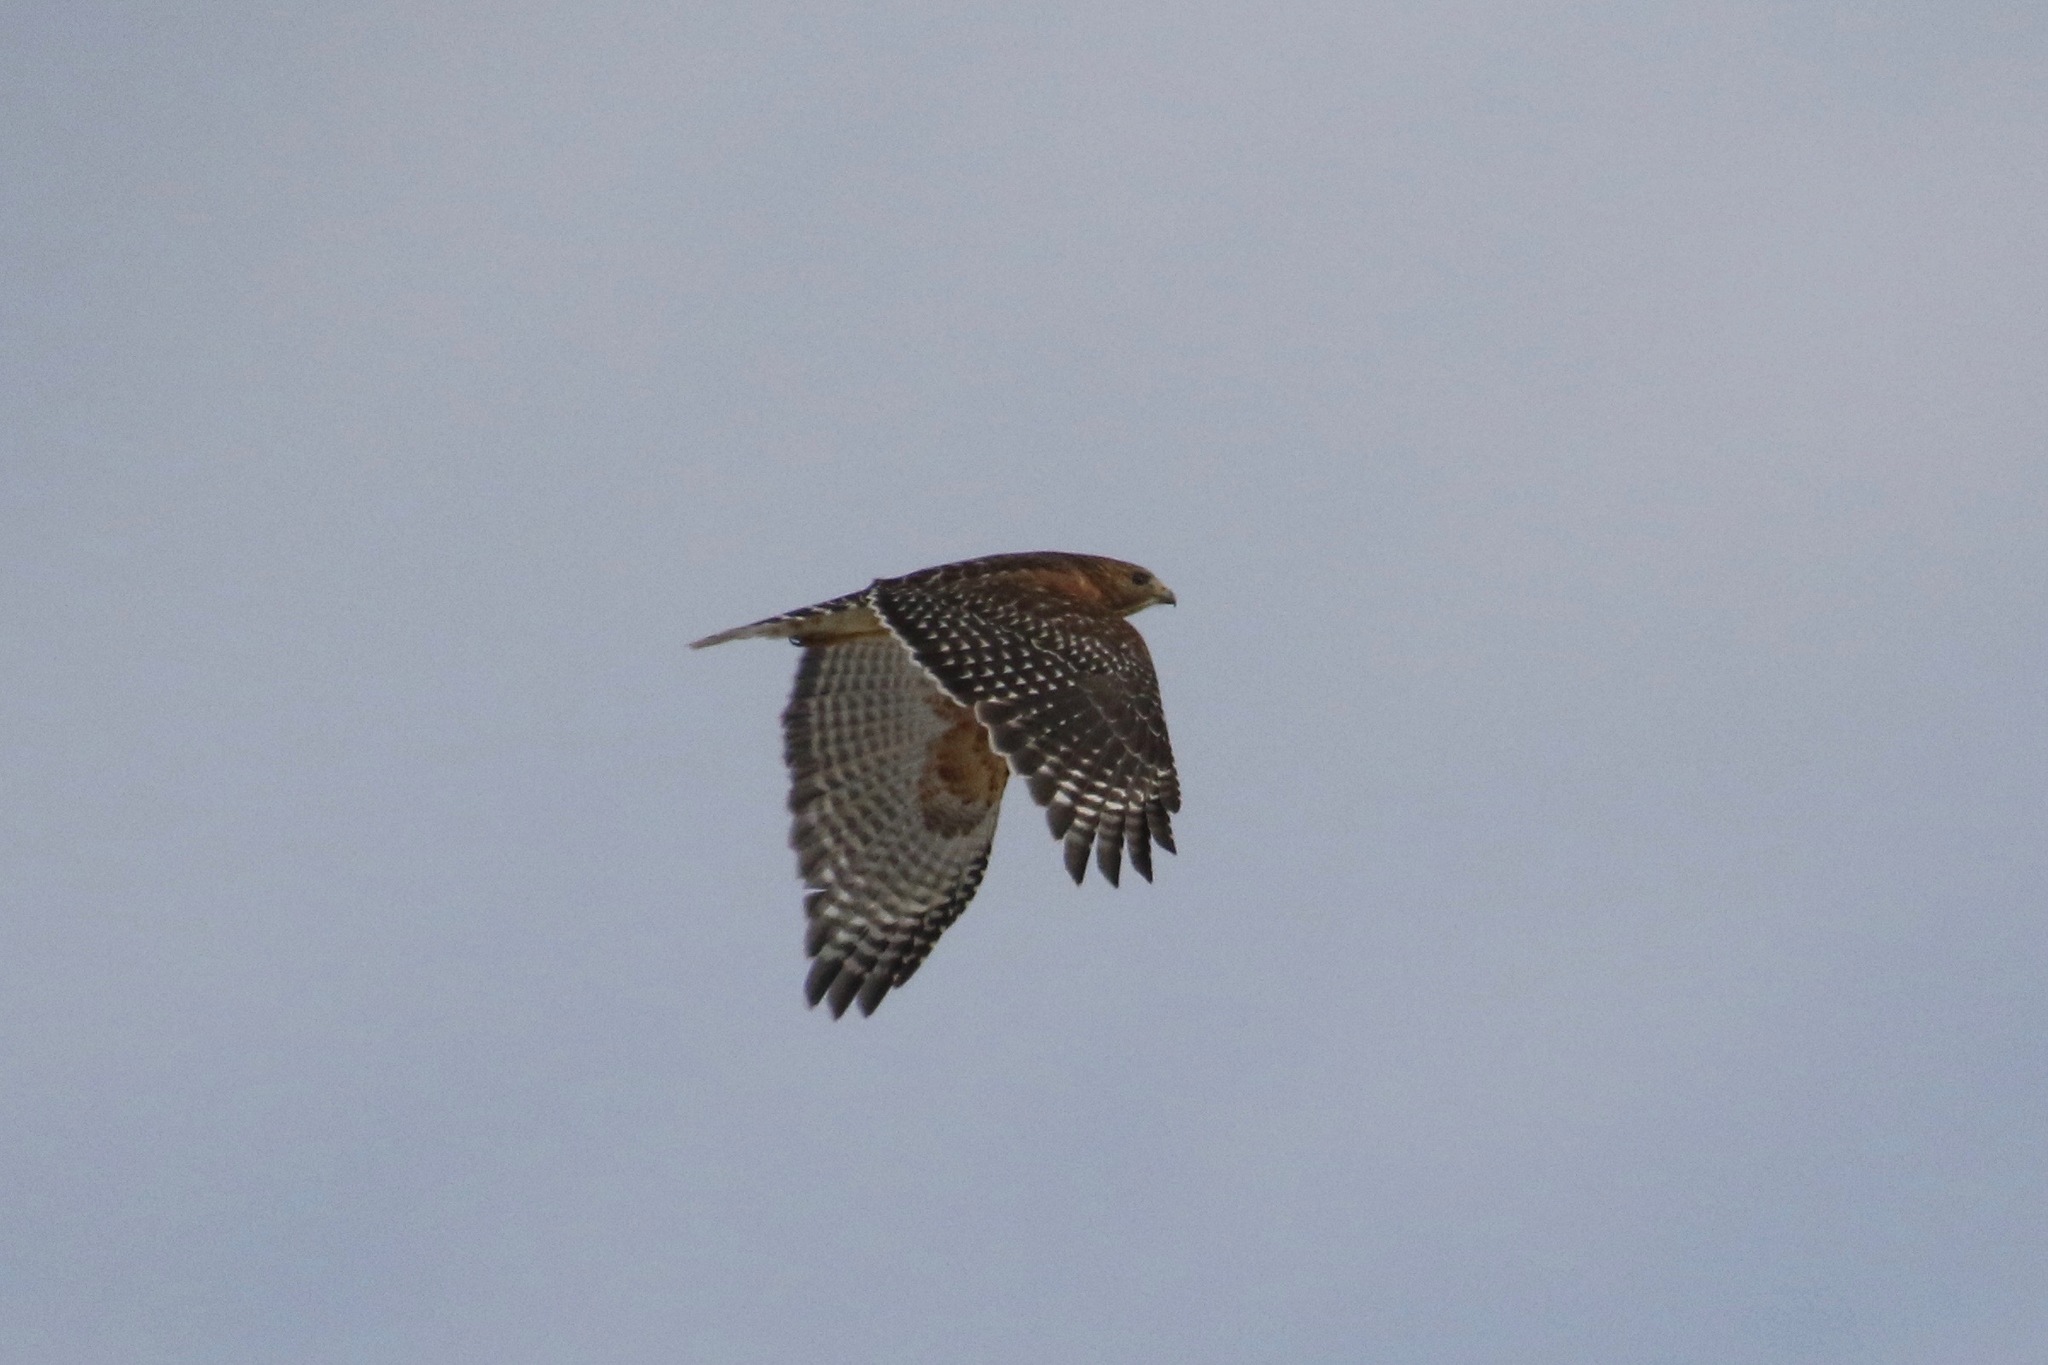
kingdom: Animalia
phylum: Chordata
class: Aves
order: Accipitriformes
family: Accipitridae
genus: Buteo
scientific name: Buteo lineatus
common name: Red-shouldered hawk
